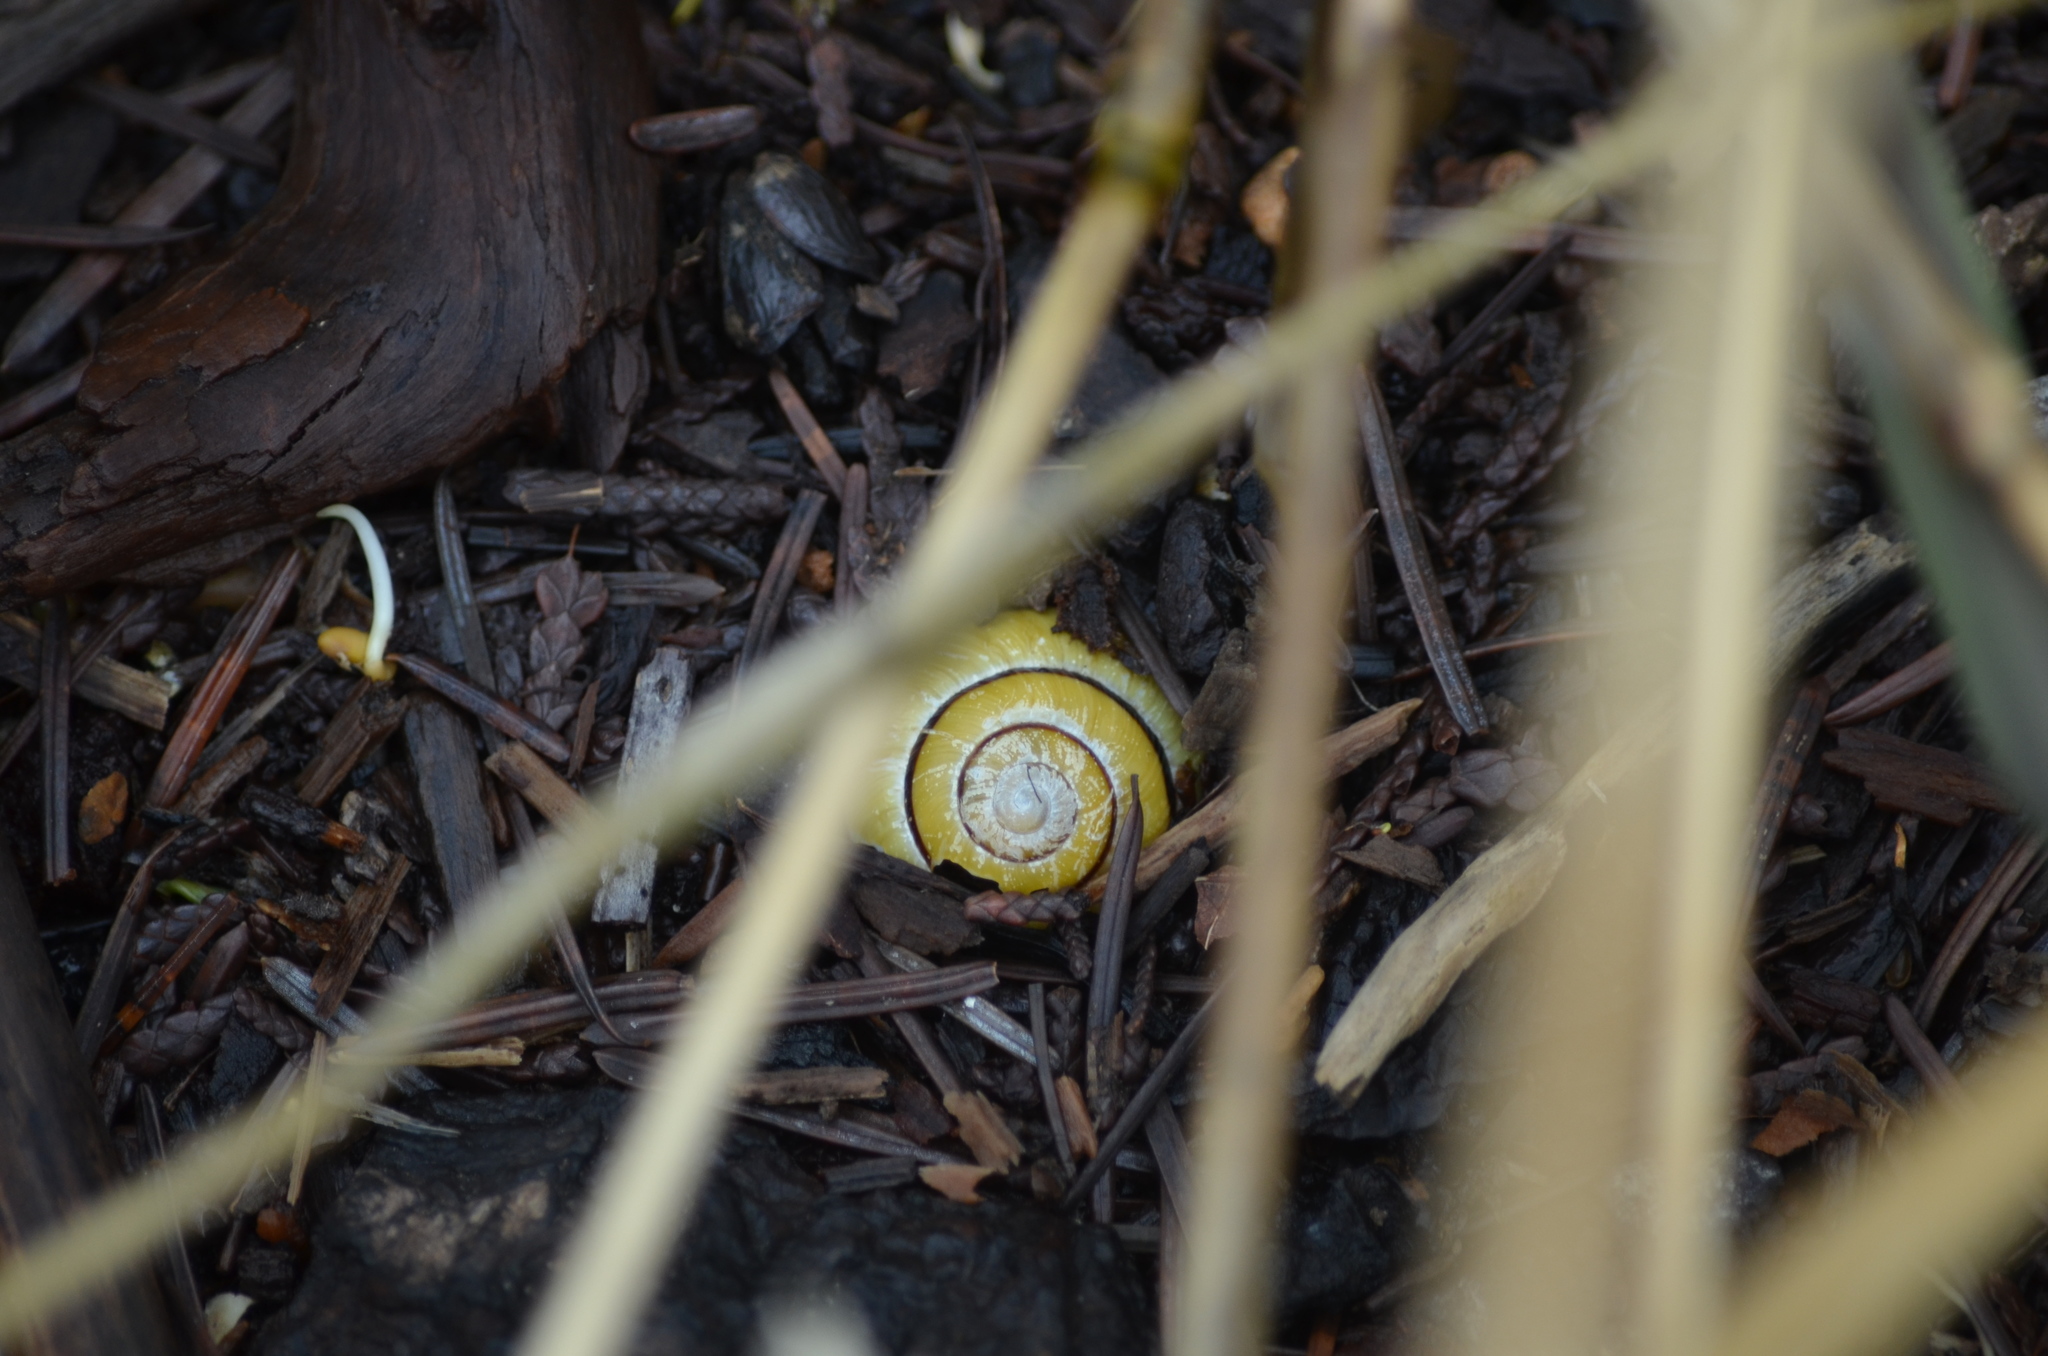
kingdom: Animalia
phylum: Mollusca
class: Gastropoda
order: Stylommatophora
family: Helicidae
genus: Cepaea
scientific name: Cepaea nemoralis
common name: Grovesnail
